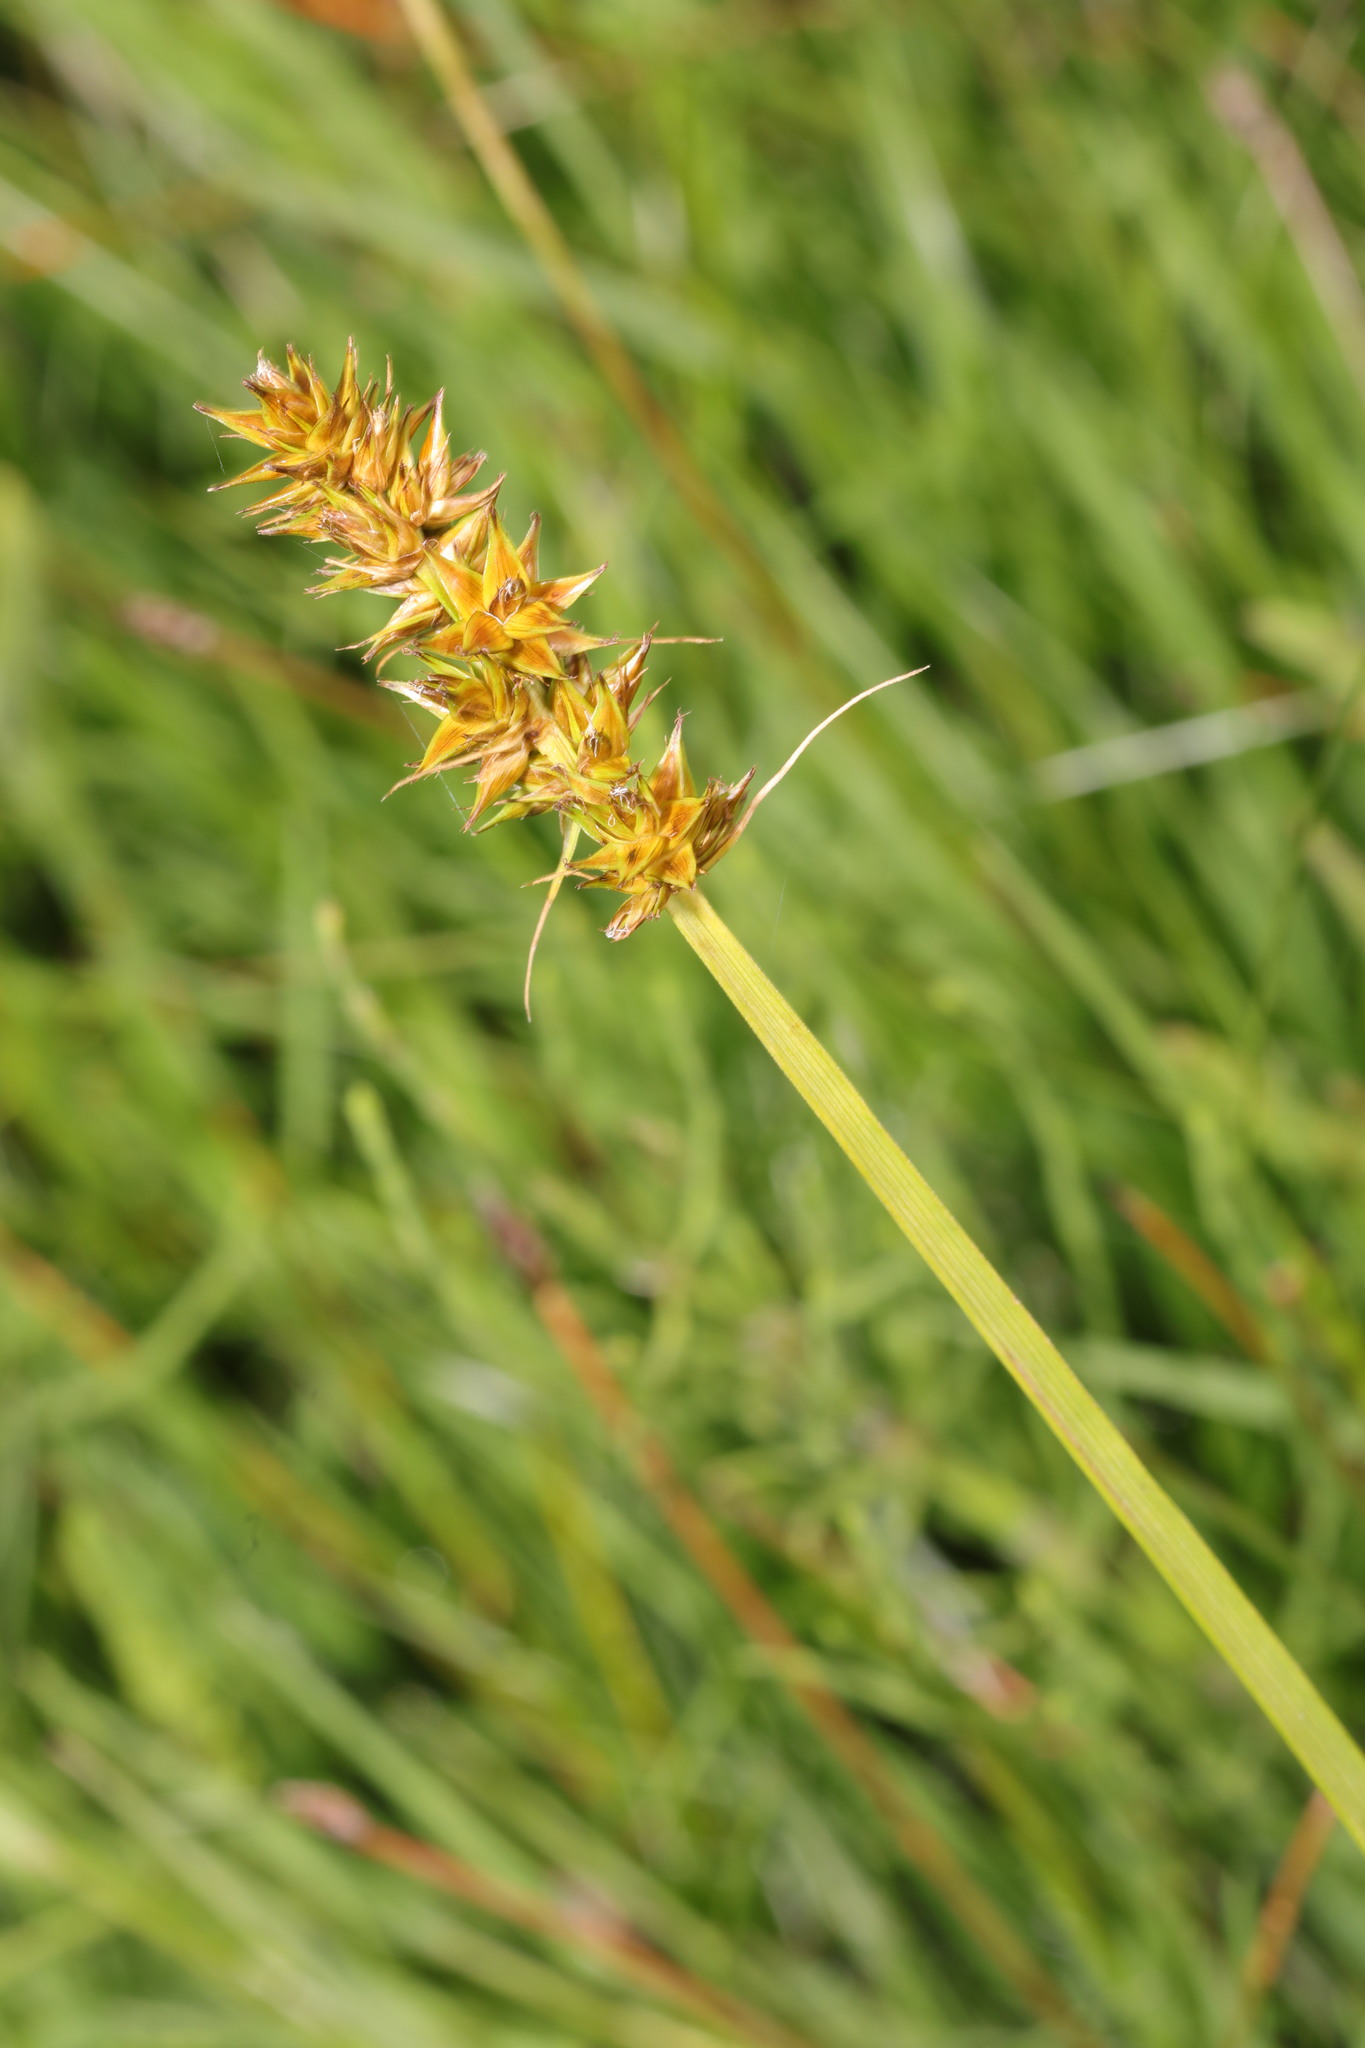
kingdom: Plantae
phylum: Tracheophyta
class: Liliopsida
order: Poales
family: Cyperaceae
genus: Carex
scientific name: Carex otrubae
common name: False fox-sedge
